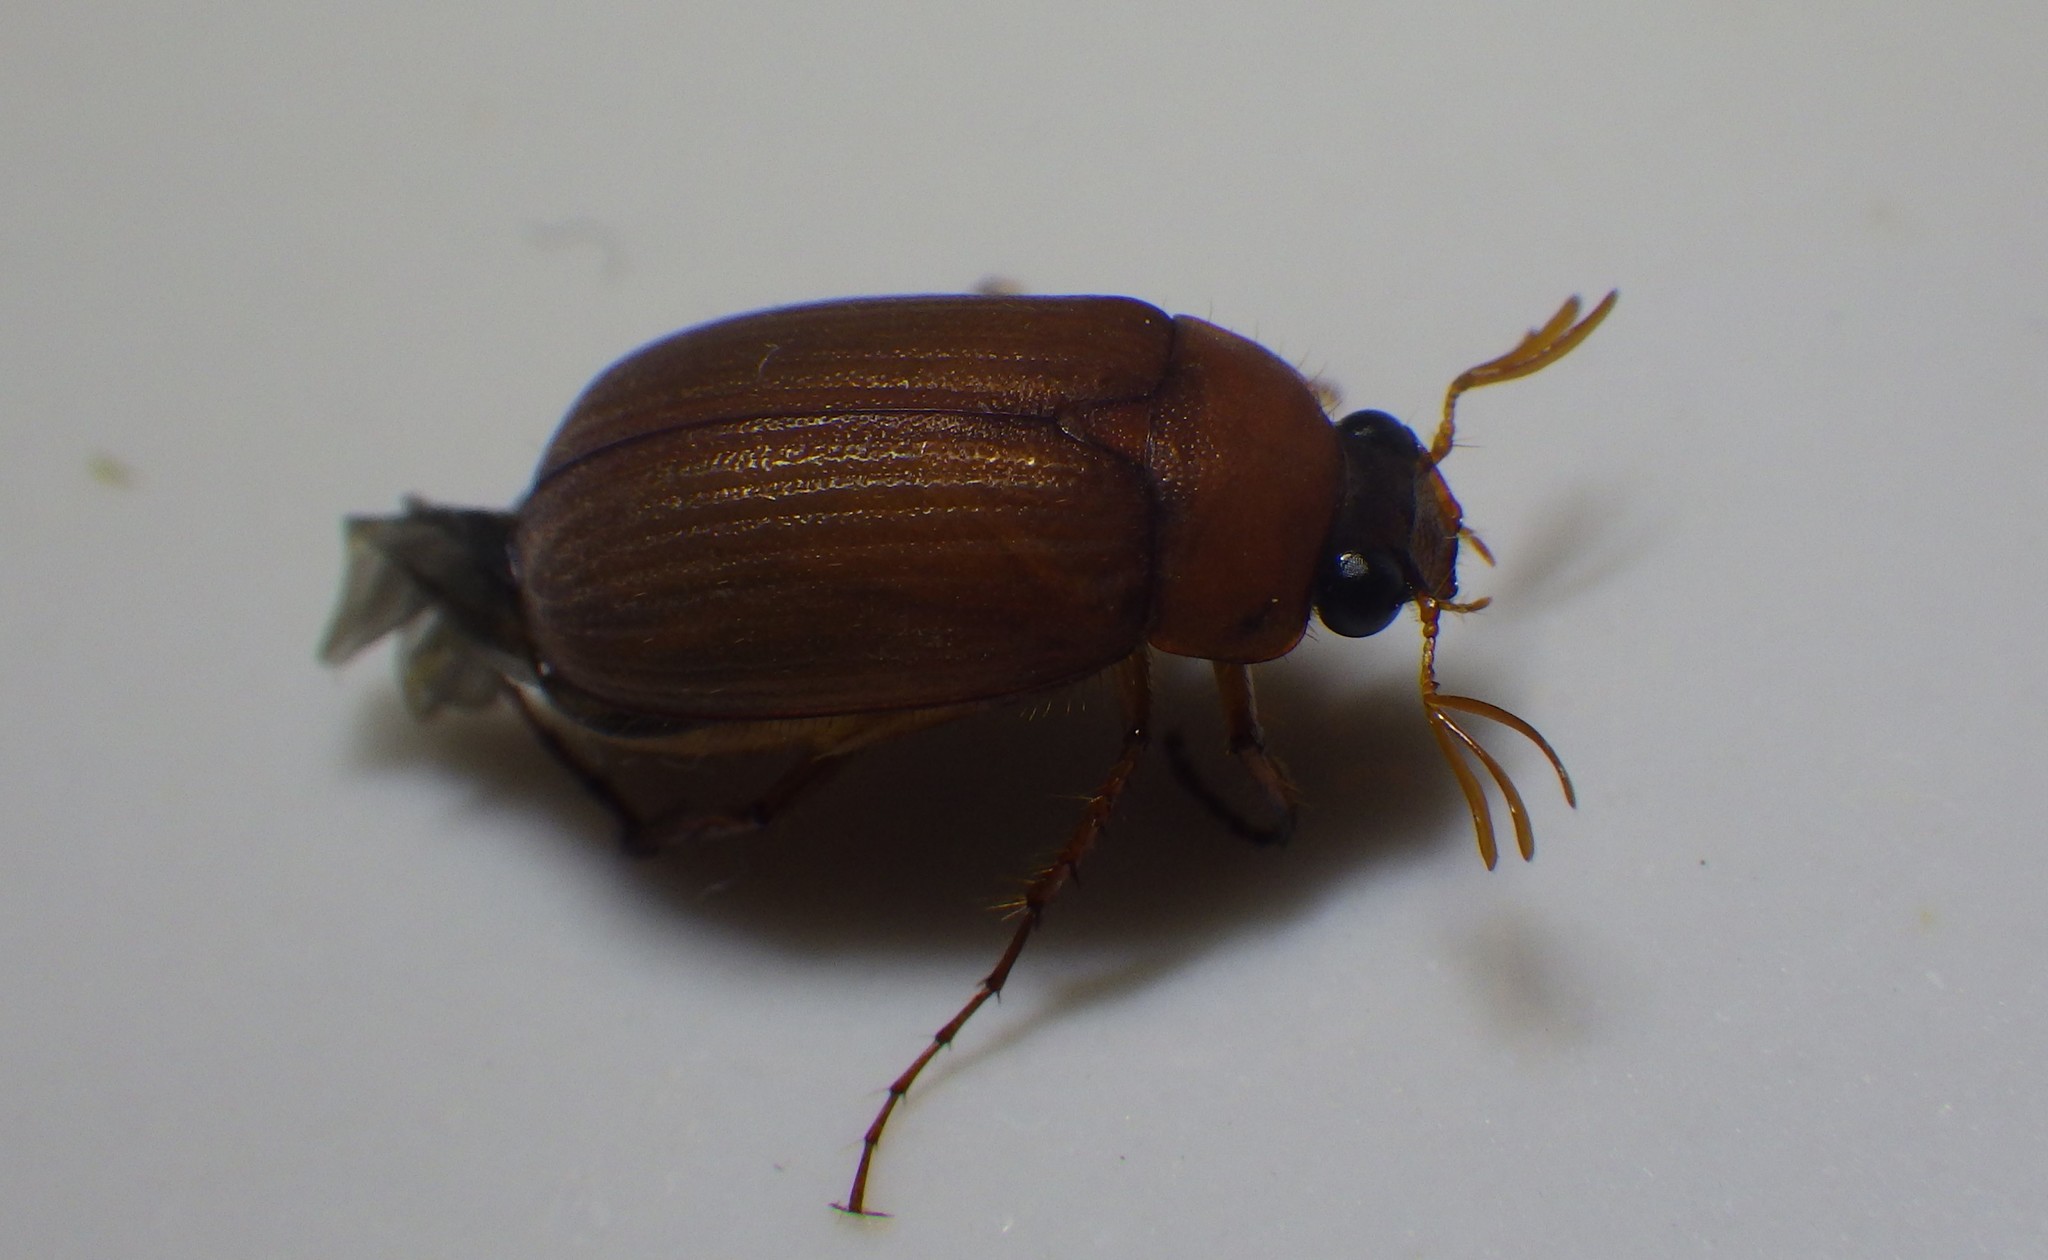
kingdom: Animalia
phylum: Arthropoda
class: Insecta
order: Coleoptera
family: Scarabaeidae
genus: Serica
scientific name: Serica brunnea
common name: Brown chafer
